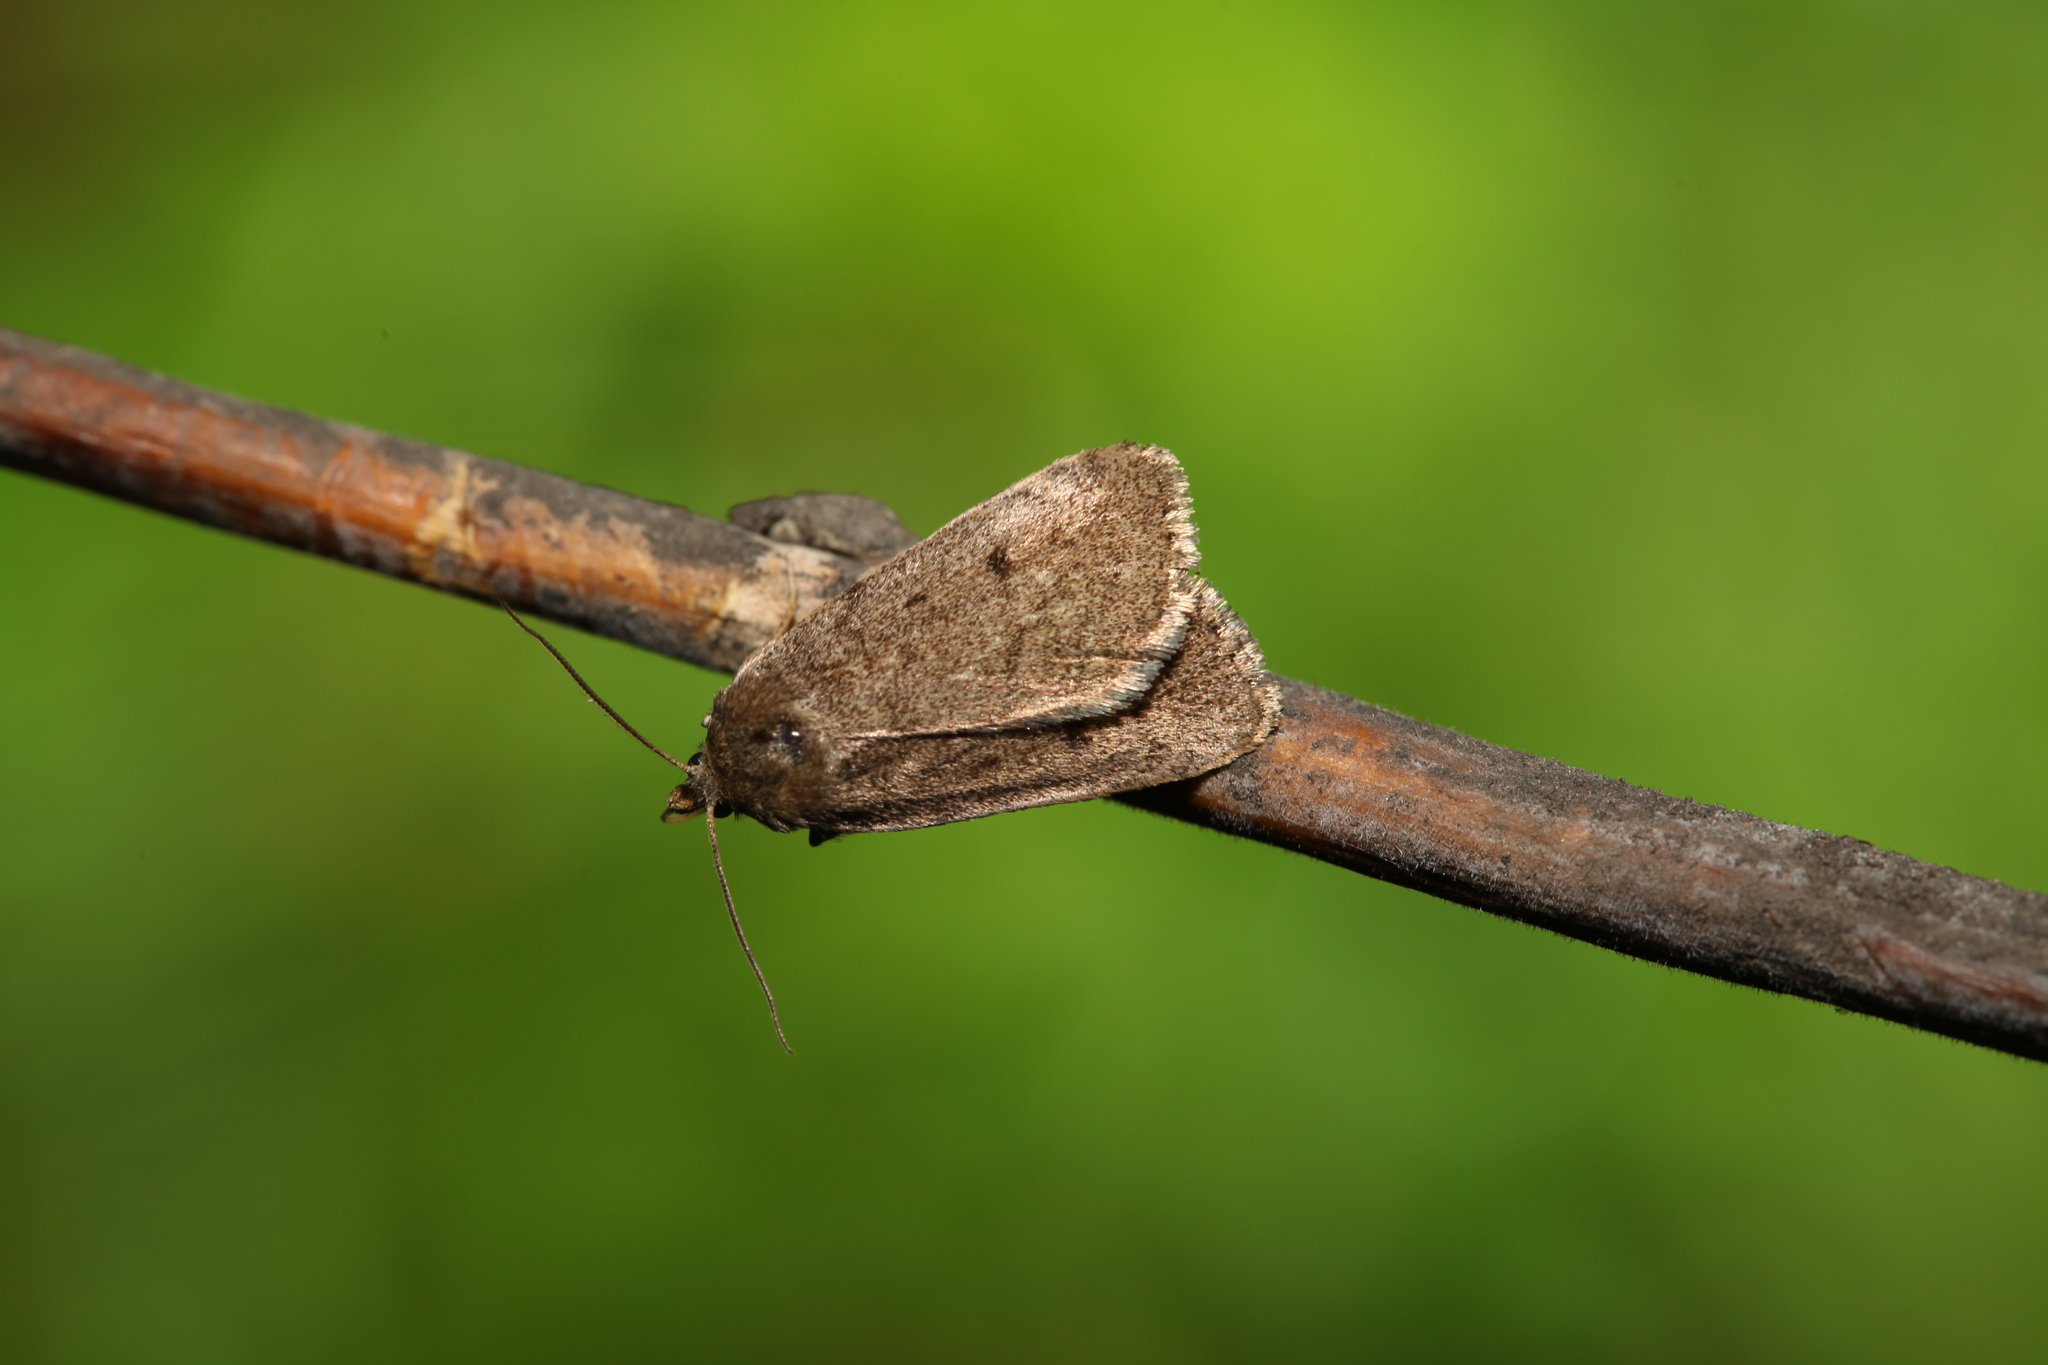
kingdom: Animalia
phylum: Arthropoda
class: Insecta
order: Lepidoptera
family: Noctuidae
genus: Athetis
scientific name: Athetis pallustris
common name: Marsh moth
